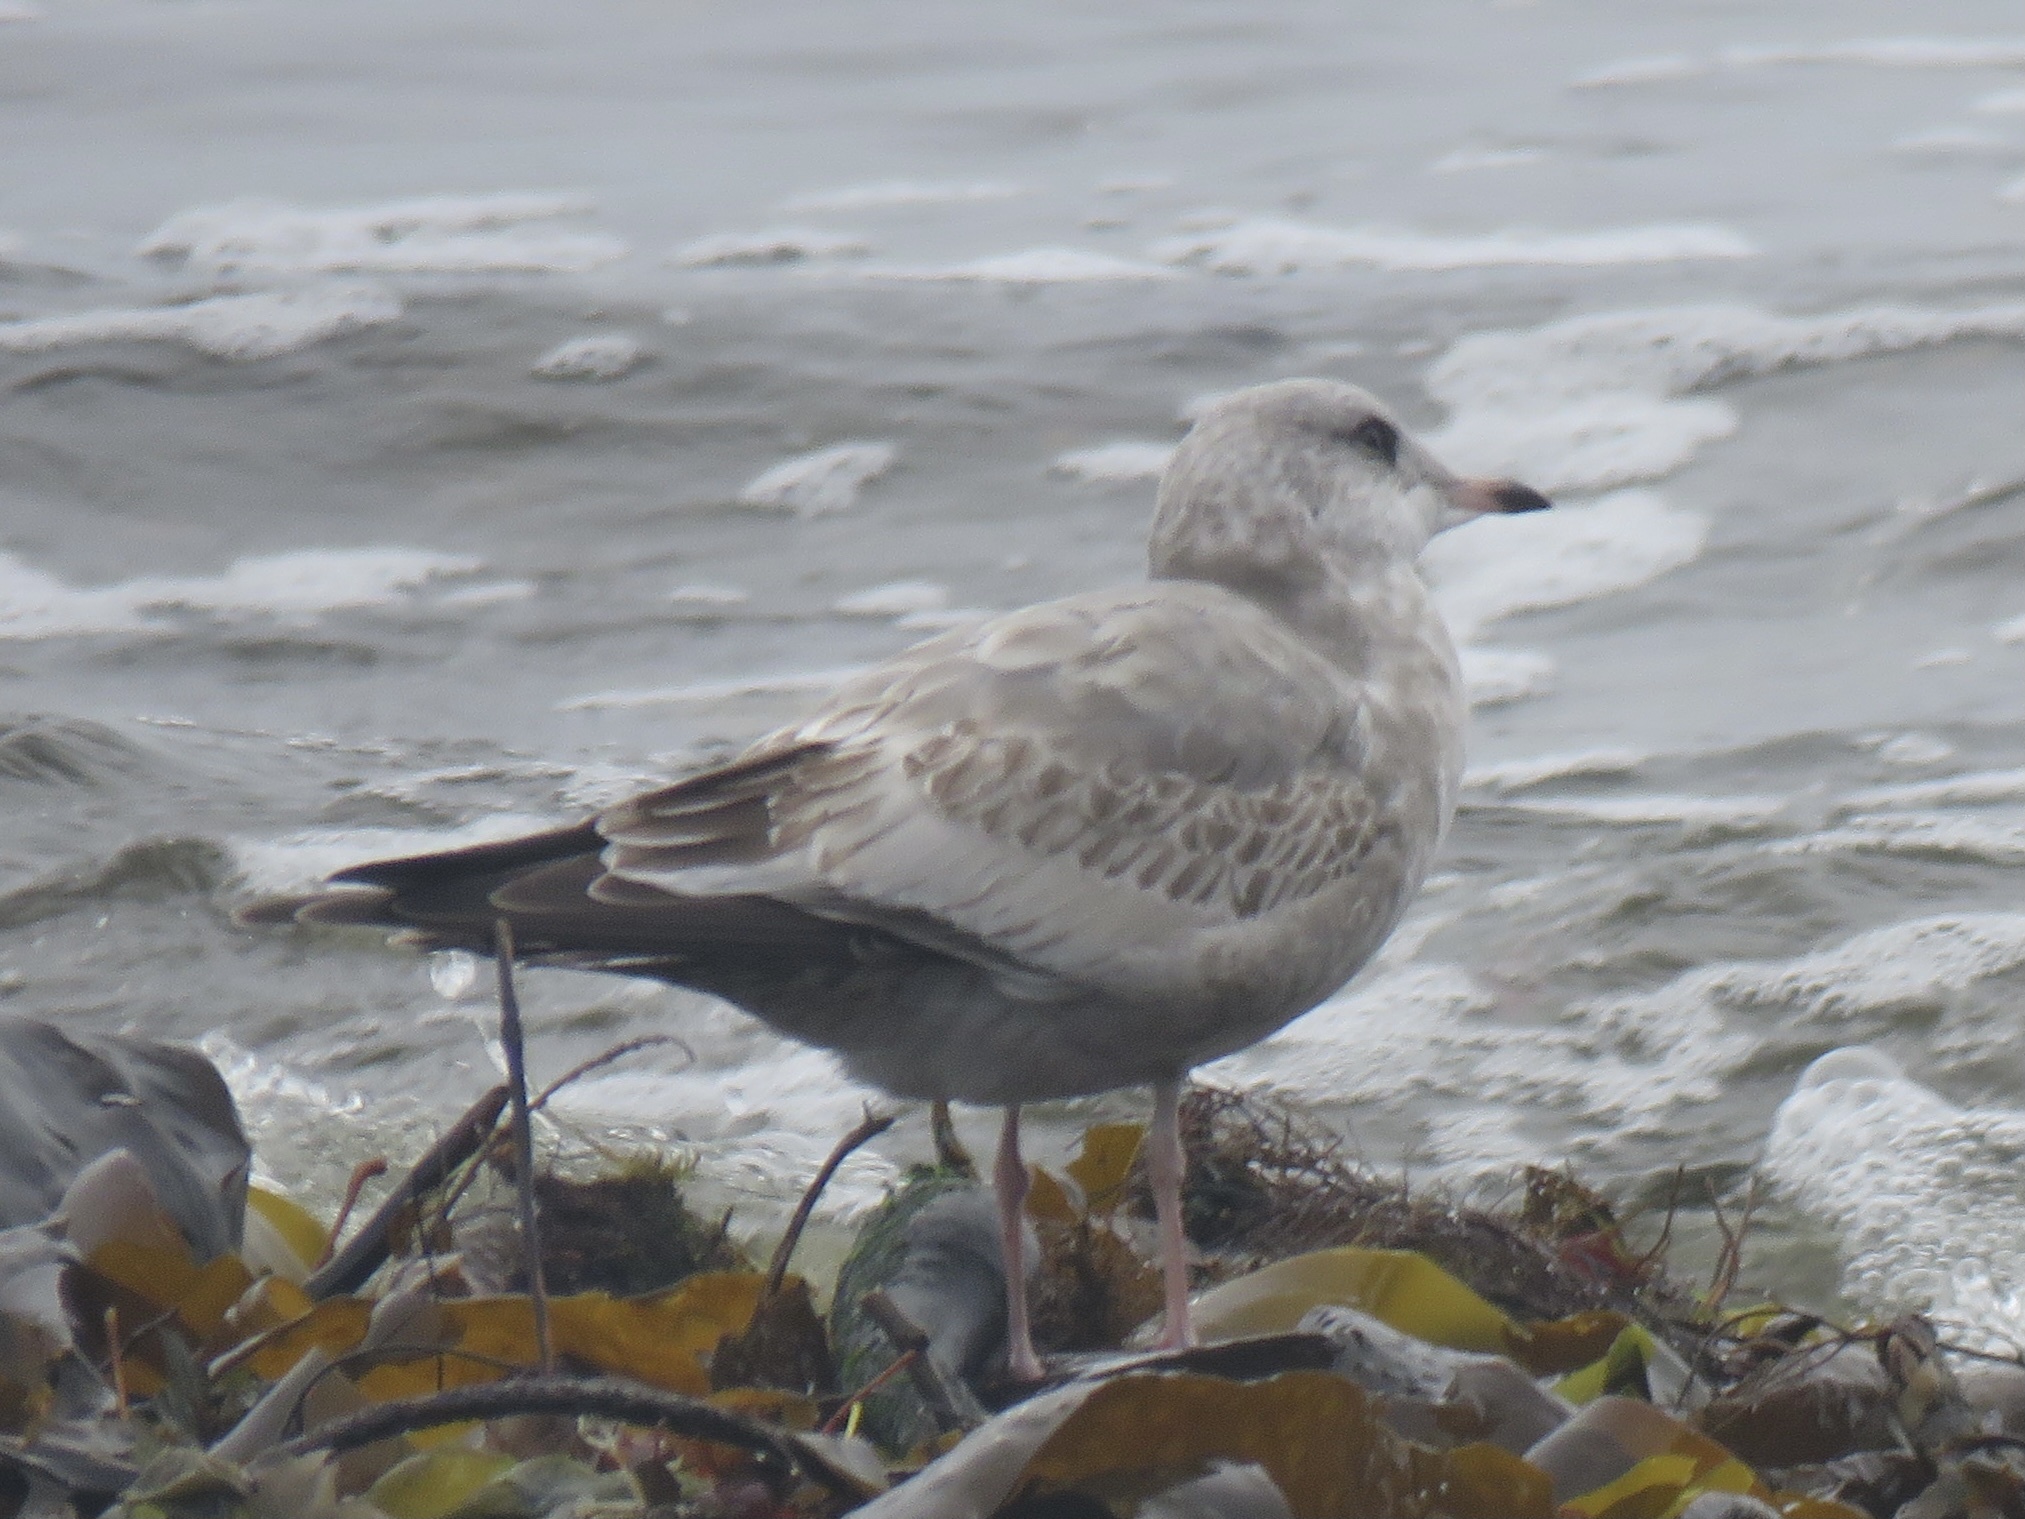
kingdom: Animalia
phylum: Chordata
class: Aves
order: Charadriiformes
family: Laridae
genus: Larus
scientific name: Larus brachyrhynchus
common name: Short-billed gull
